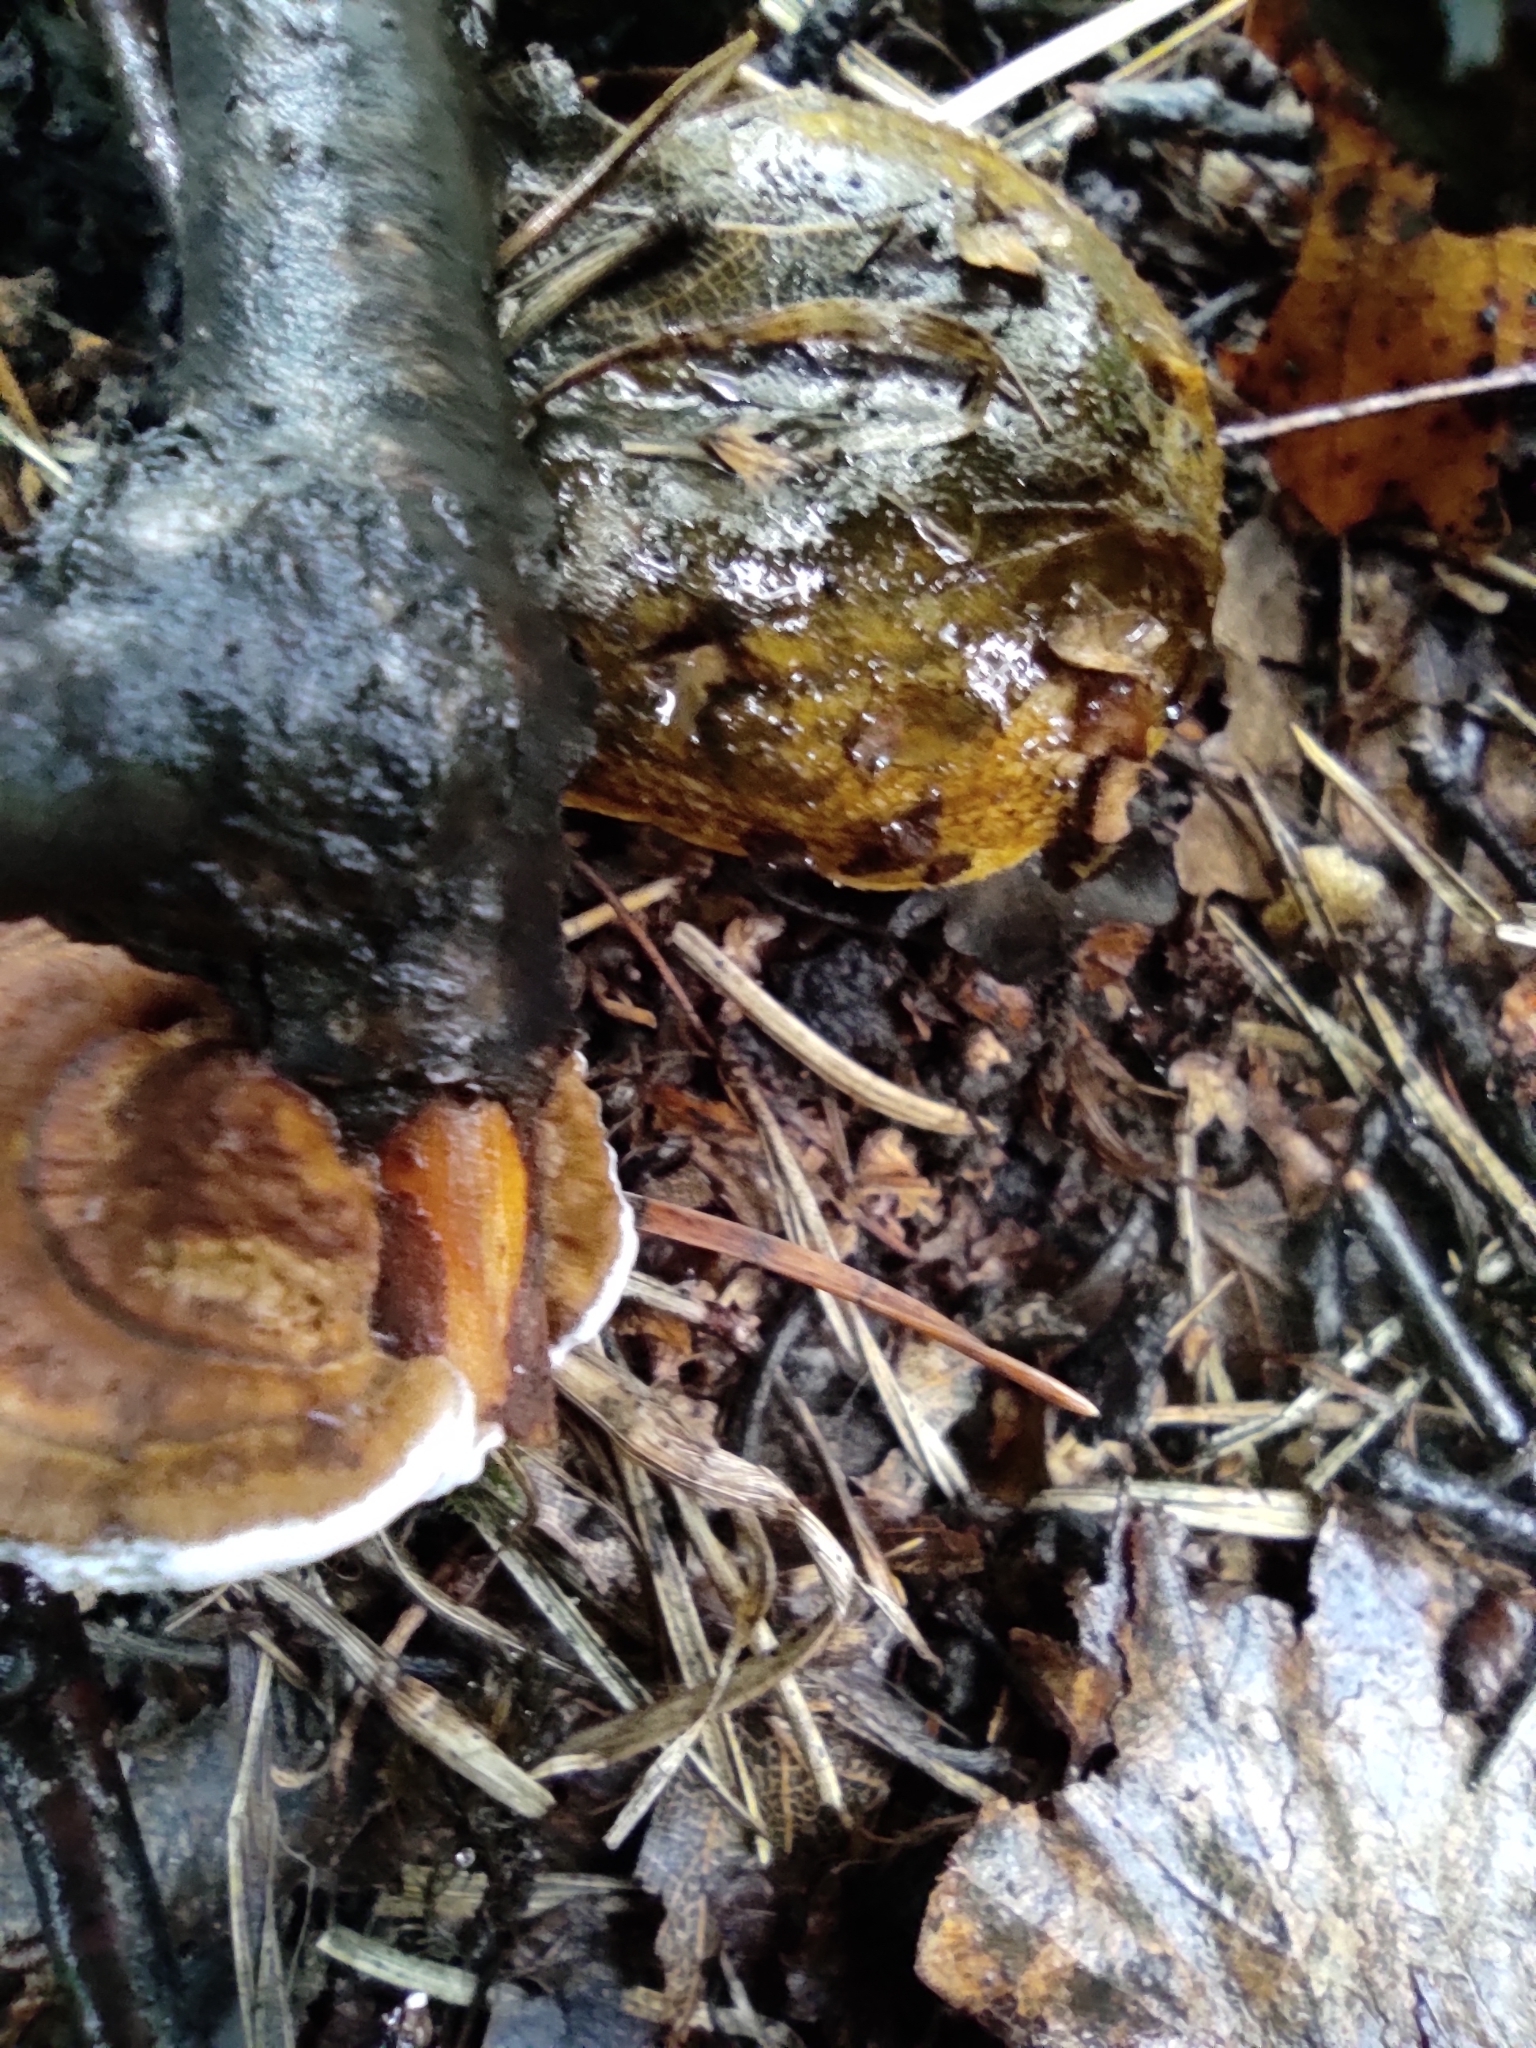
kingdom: Fungi
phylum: Basidiomycota
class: Agaricomycetes
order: Russulales
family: Russulaceae
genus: Lactarius
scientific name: Lactarius turpis
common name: Ugly milk-cap
